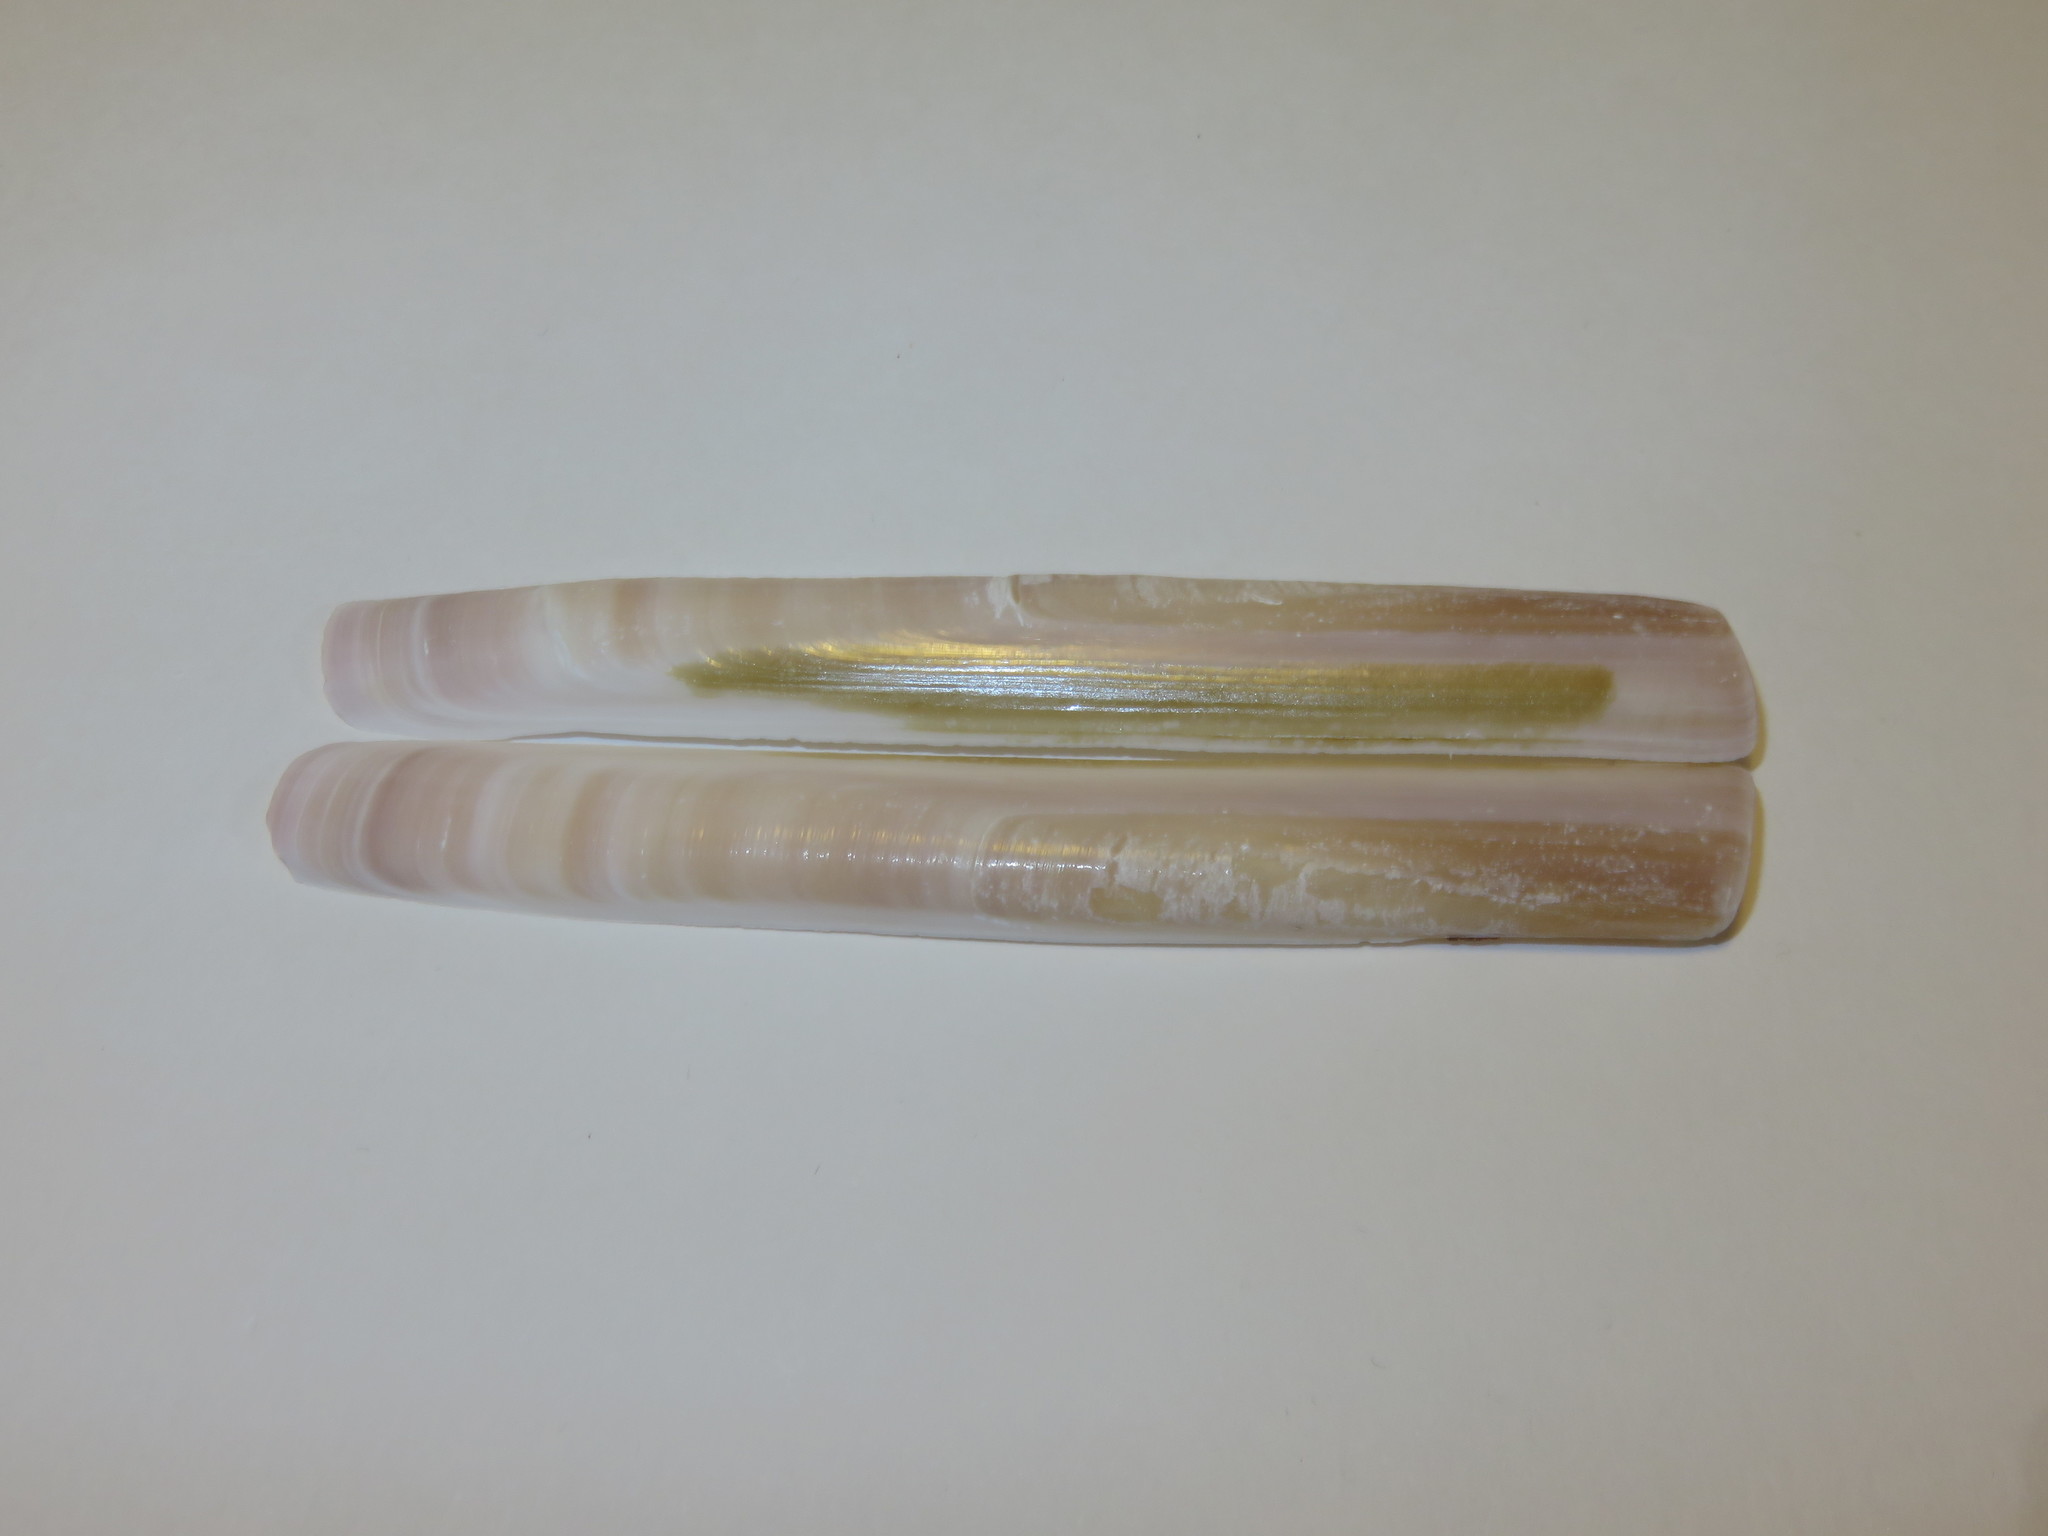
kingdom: Animalia
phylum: Mollusca
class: Bivalvia
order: Adapedonta
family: Solenidae
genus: Solen
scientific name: Solen strictus
